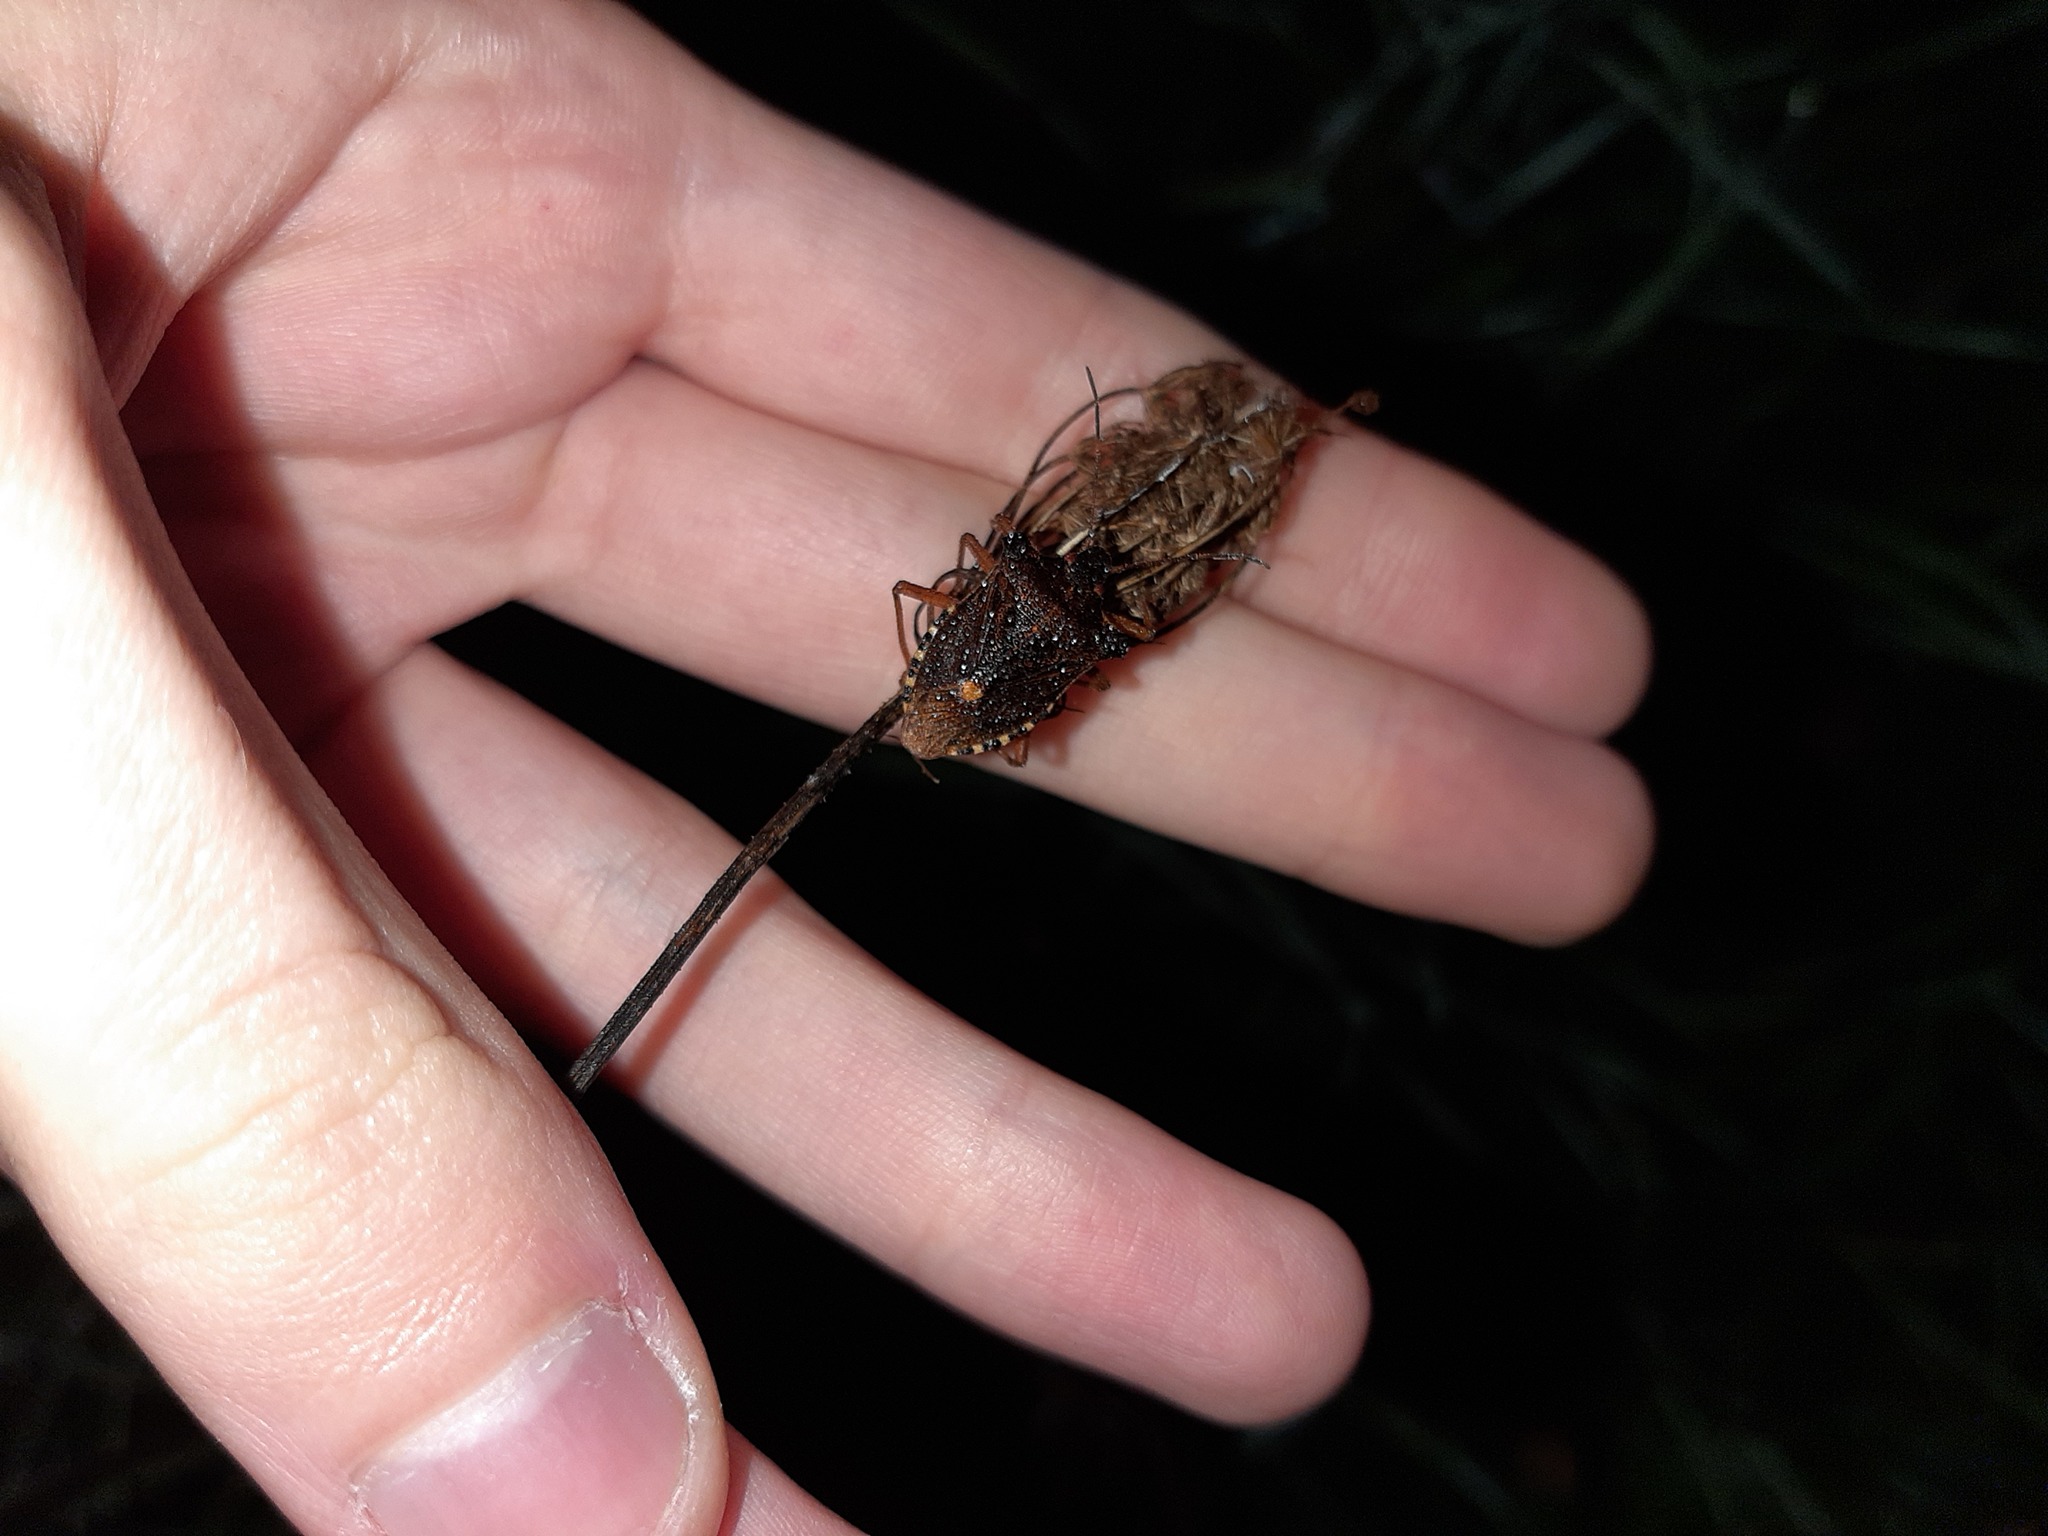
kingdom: Animalia
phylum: Arthropoda
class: Insecta
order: Hemiptera
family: Pentatomidae
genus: Pentatoma
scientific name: Pentatoma rufipes
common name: Forest bug
